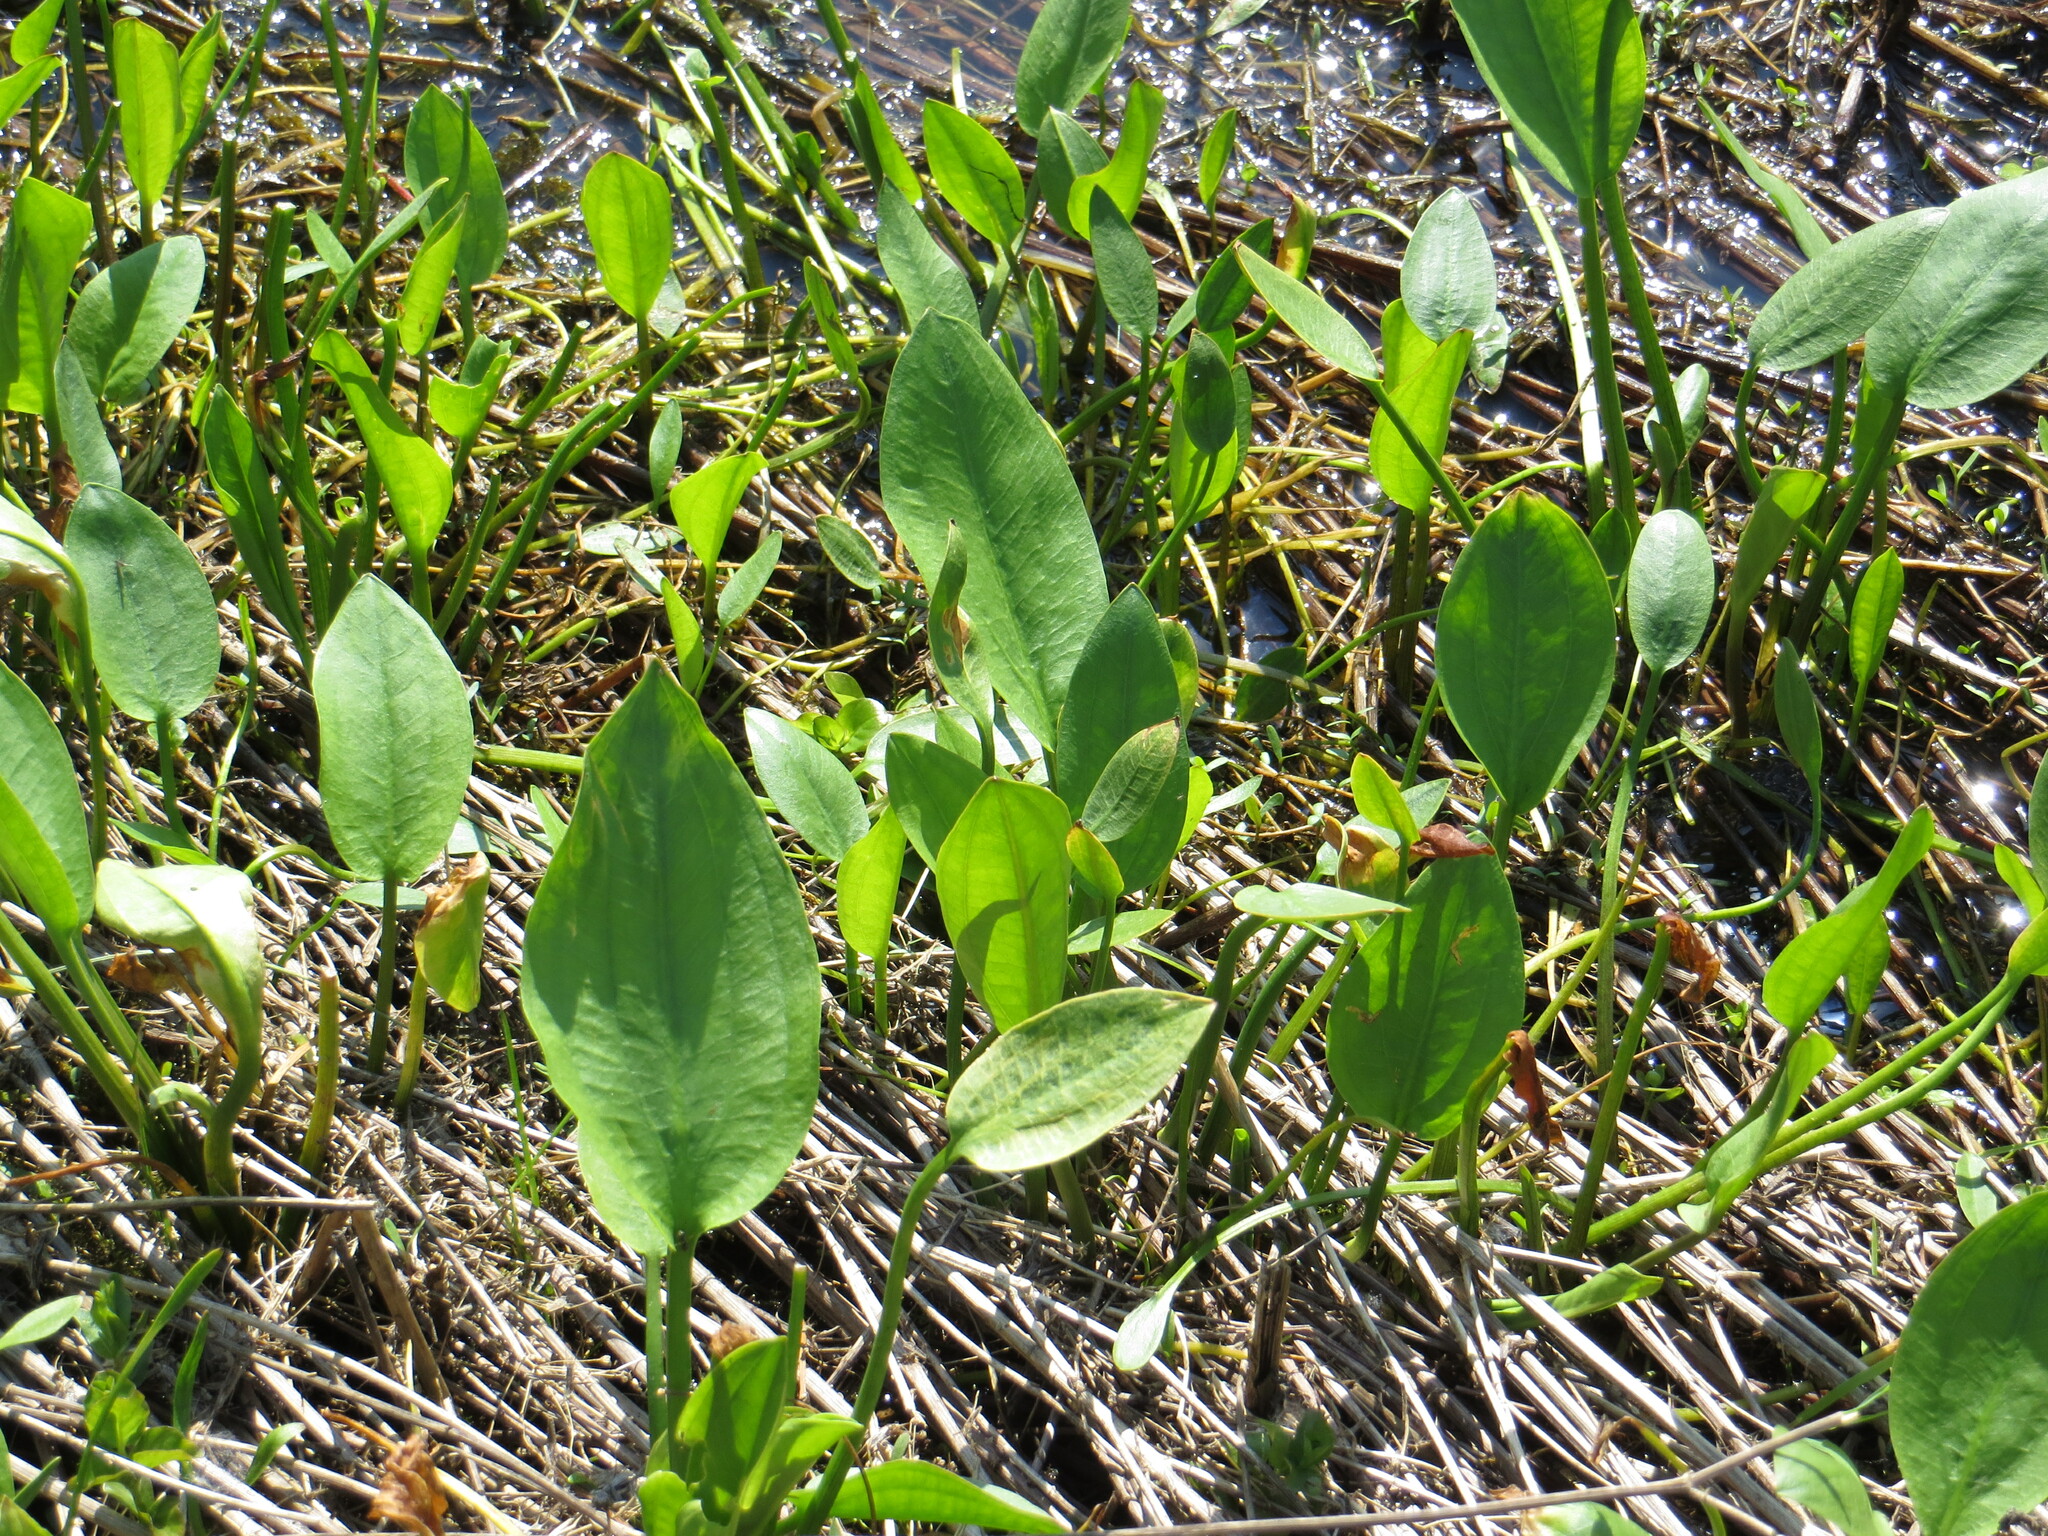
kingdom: Plantae
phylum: Tracheophyta
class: Liliopsida
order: Alismatales
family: Alismataceae
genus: Alisma
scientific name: Alisma plantago-aquatica
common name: Water-plantain
